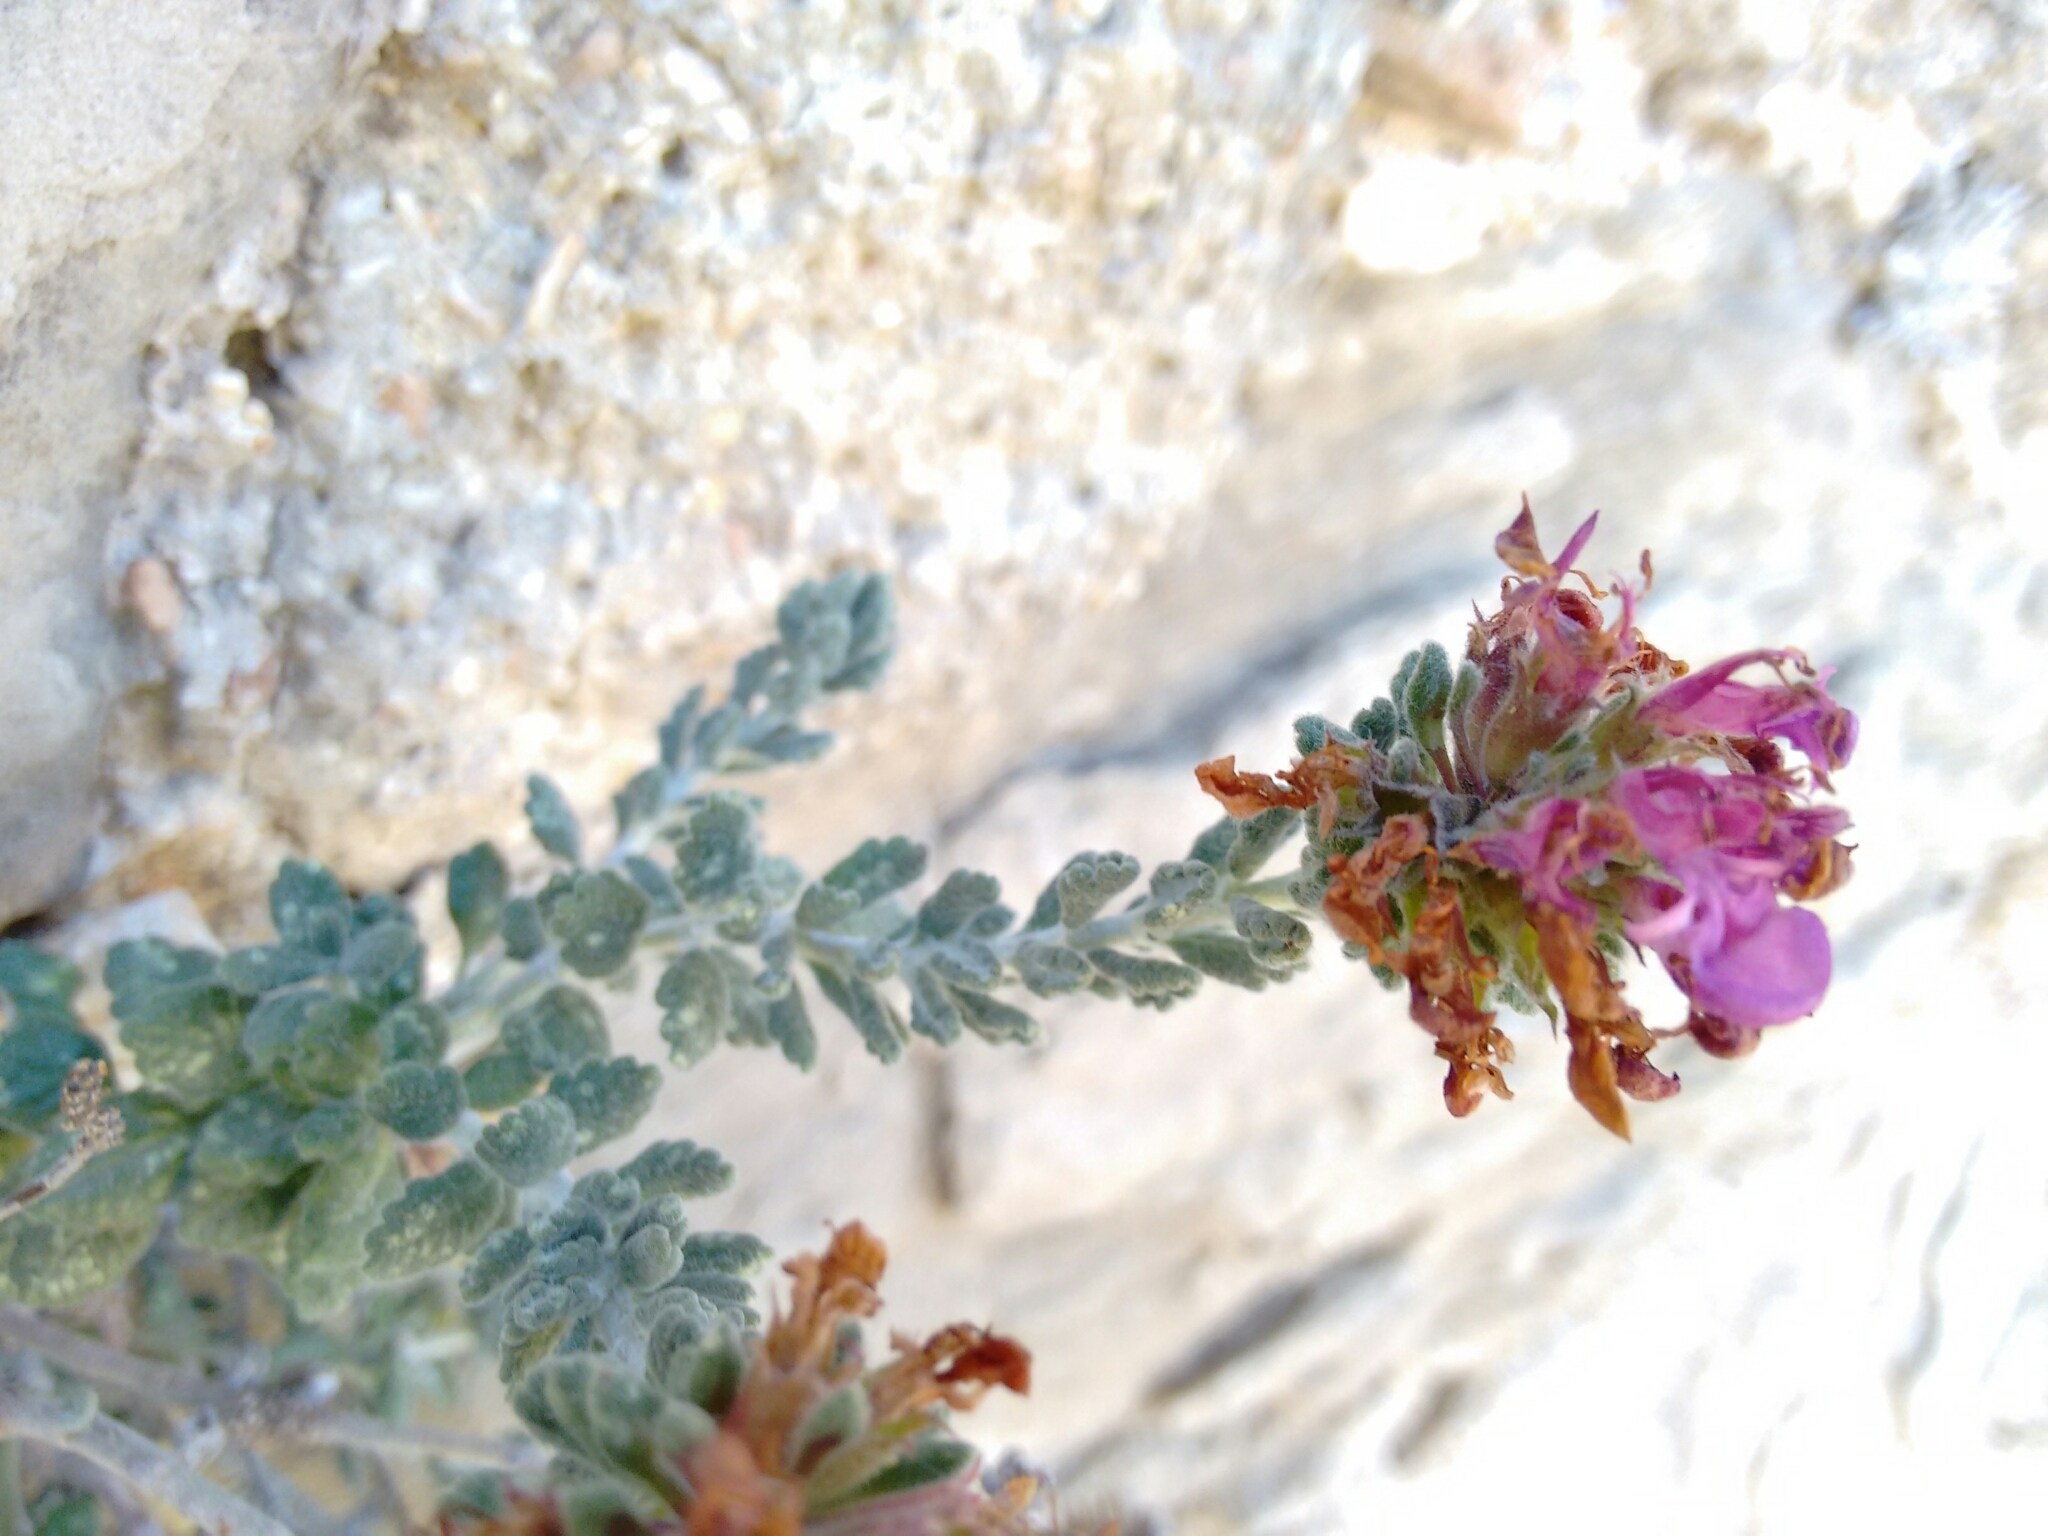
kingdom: Plantae
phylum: Tracheophyta
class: Magnoliopsida
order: Lamiales
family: Lamiaceae
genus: Teucrium
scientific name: Teucrium hifacense
